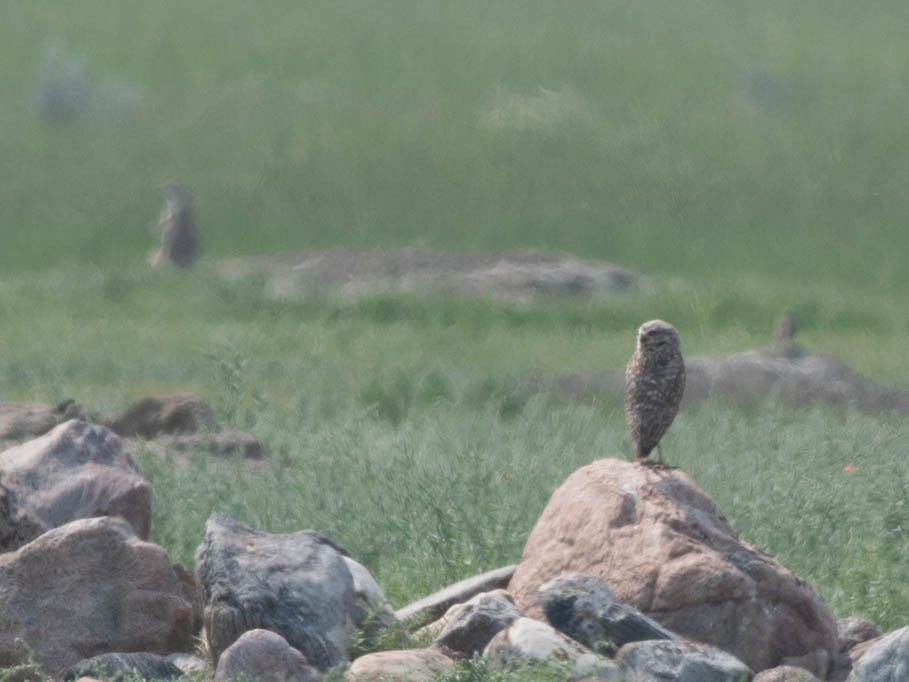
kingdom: Animalia
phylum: Chordata
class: Aves
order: Strigiformes
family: Strigidae
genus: Athene
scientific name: Athene cunicularia
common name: Burrowing owl
